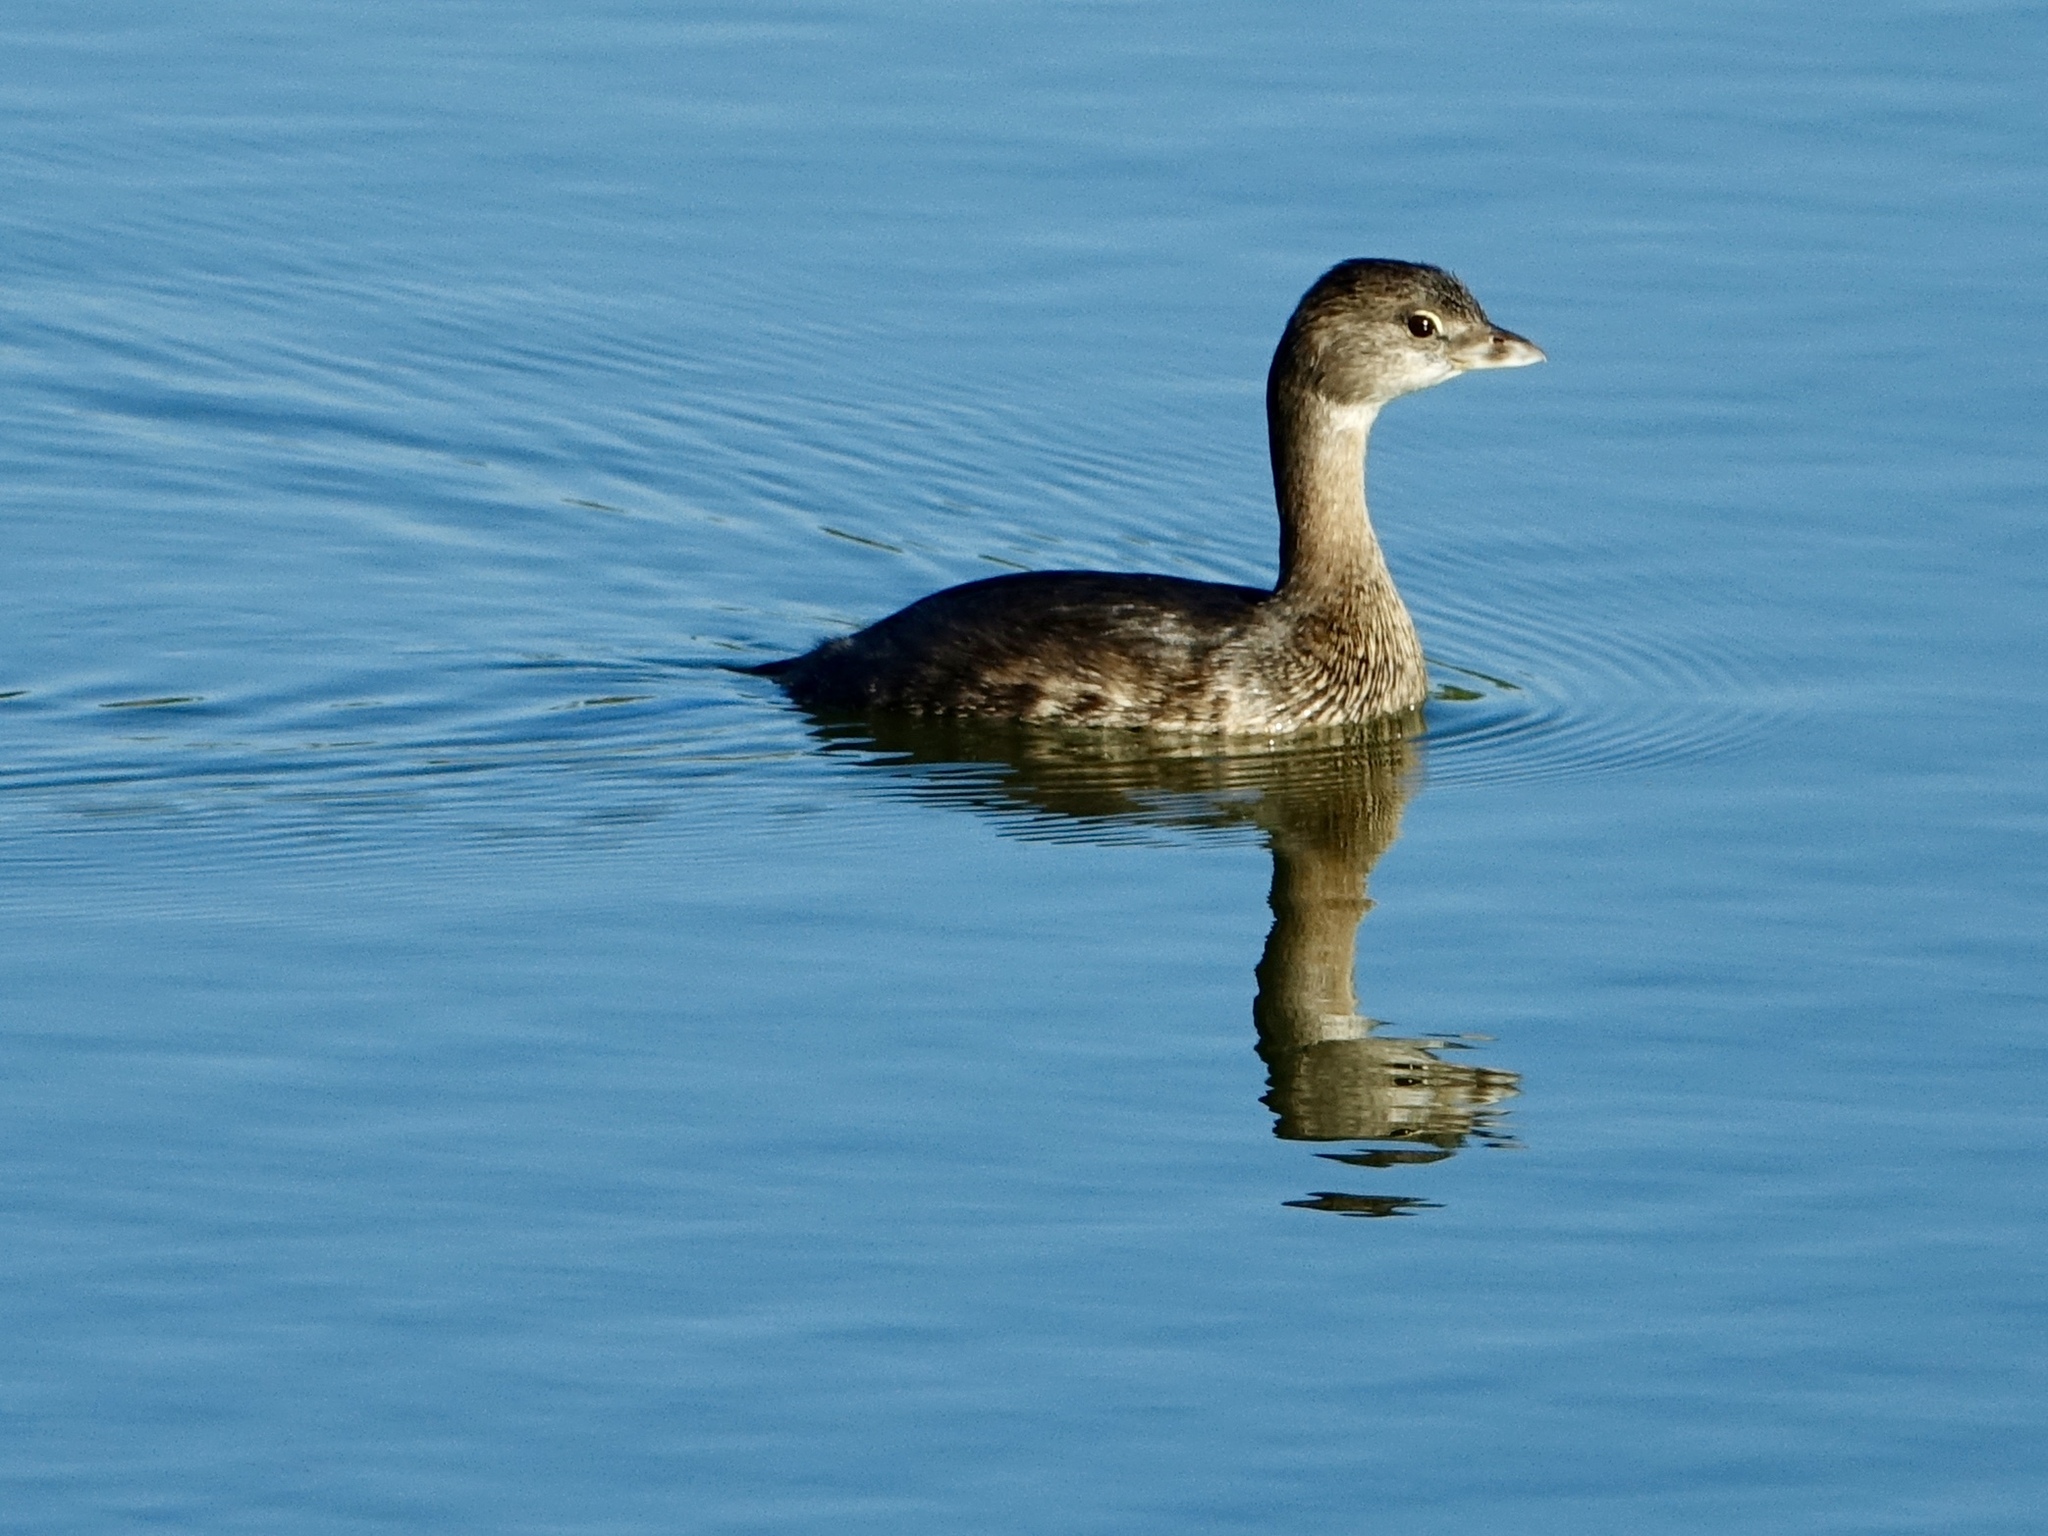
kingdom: Animalia
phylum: Chordata
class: Aves
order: Podicipediformes
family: Podicipedidae
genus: Podilymbus
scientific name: Podilymbus podiceps
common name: Pied-billed grebe
